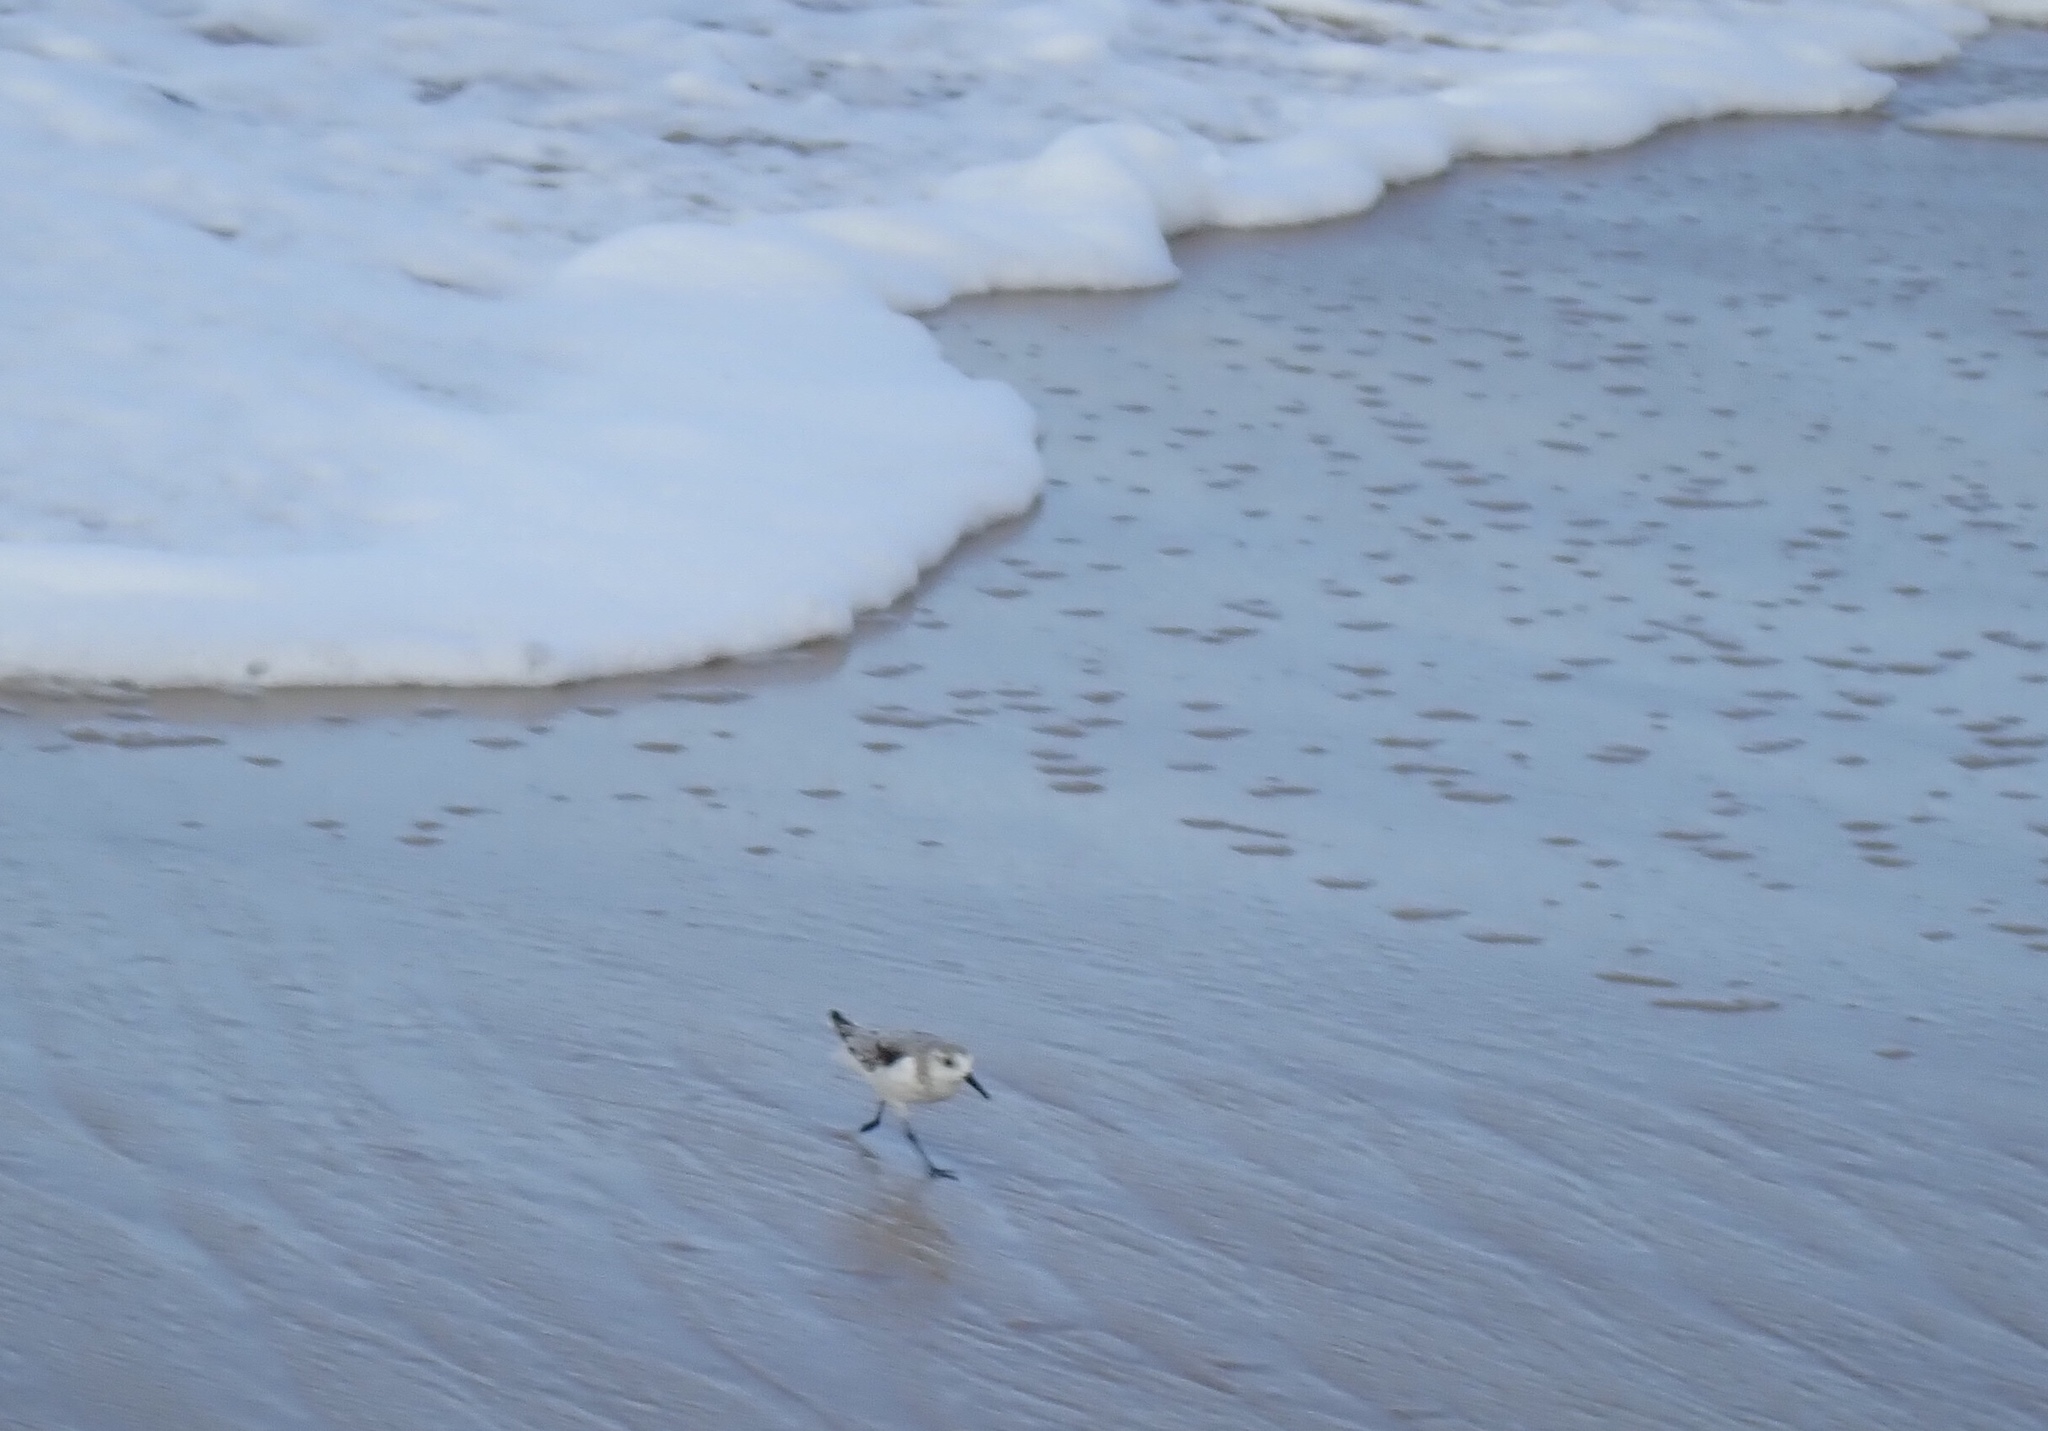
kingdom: Animalia
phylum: Chordata
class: Aves
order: Charadriiformes
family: Scolopacidae
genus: Calidris
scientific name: Calidris alba
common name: Sanderling
